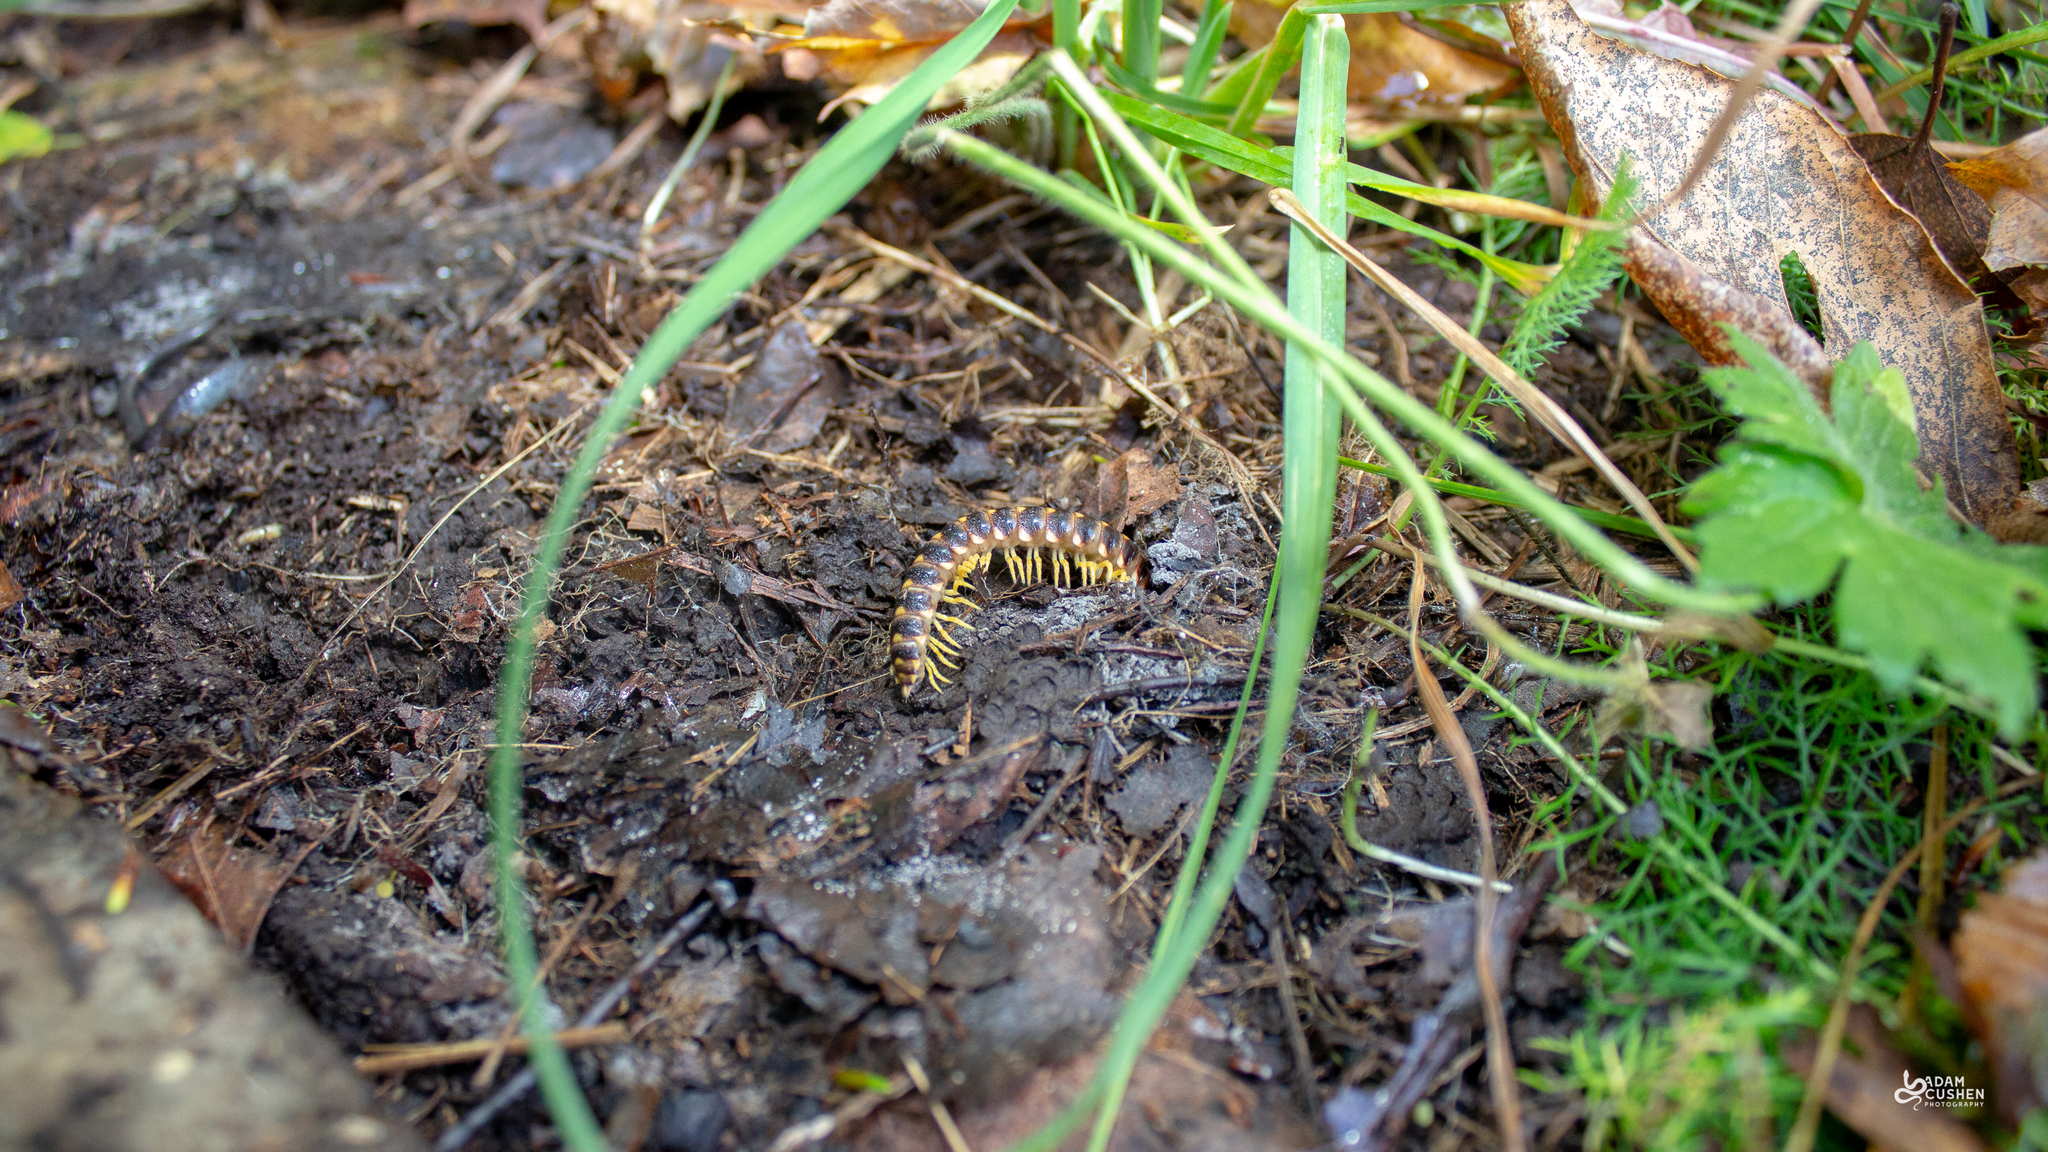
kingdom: Animalia
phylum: Arthropoda
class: Diplopoda
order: Polydesmida
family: Xystodesmidae
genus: Rudiloria
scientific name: Rudiloria trimaculata
